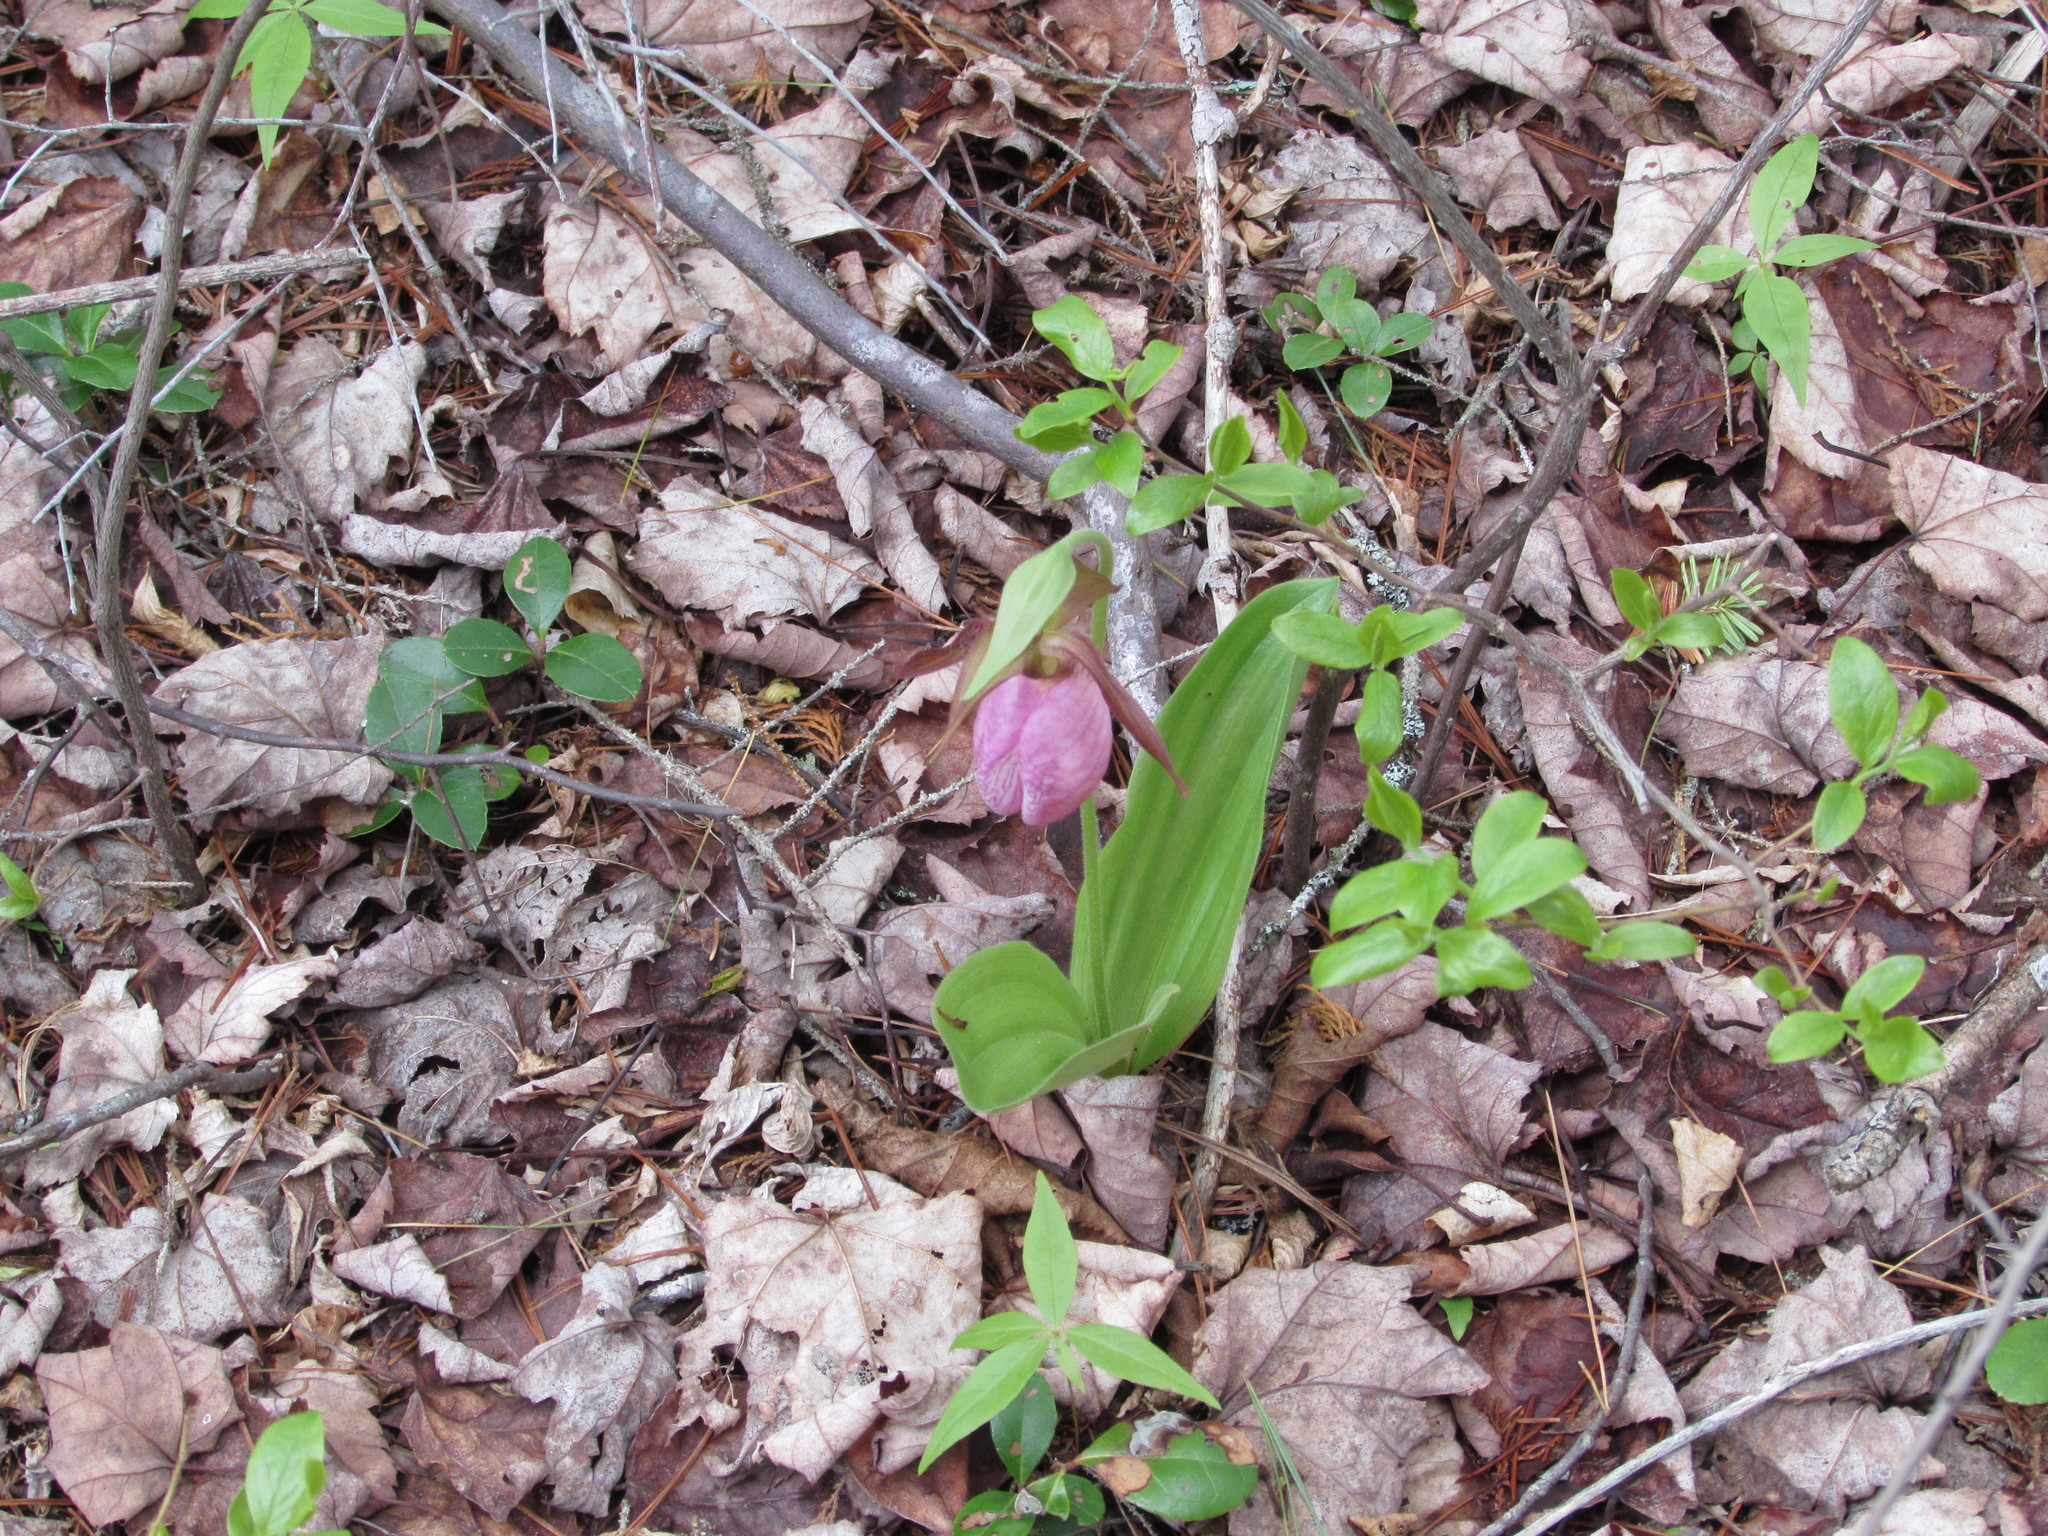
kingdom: Plantae
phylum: Tracheophyta
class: Liliopsida
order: Asparagales
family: Orchidaceae
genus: Cypripedium
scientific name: Cypripedium acaule
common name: Pink lady's-slipper
